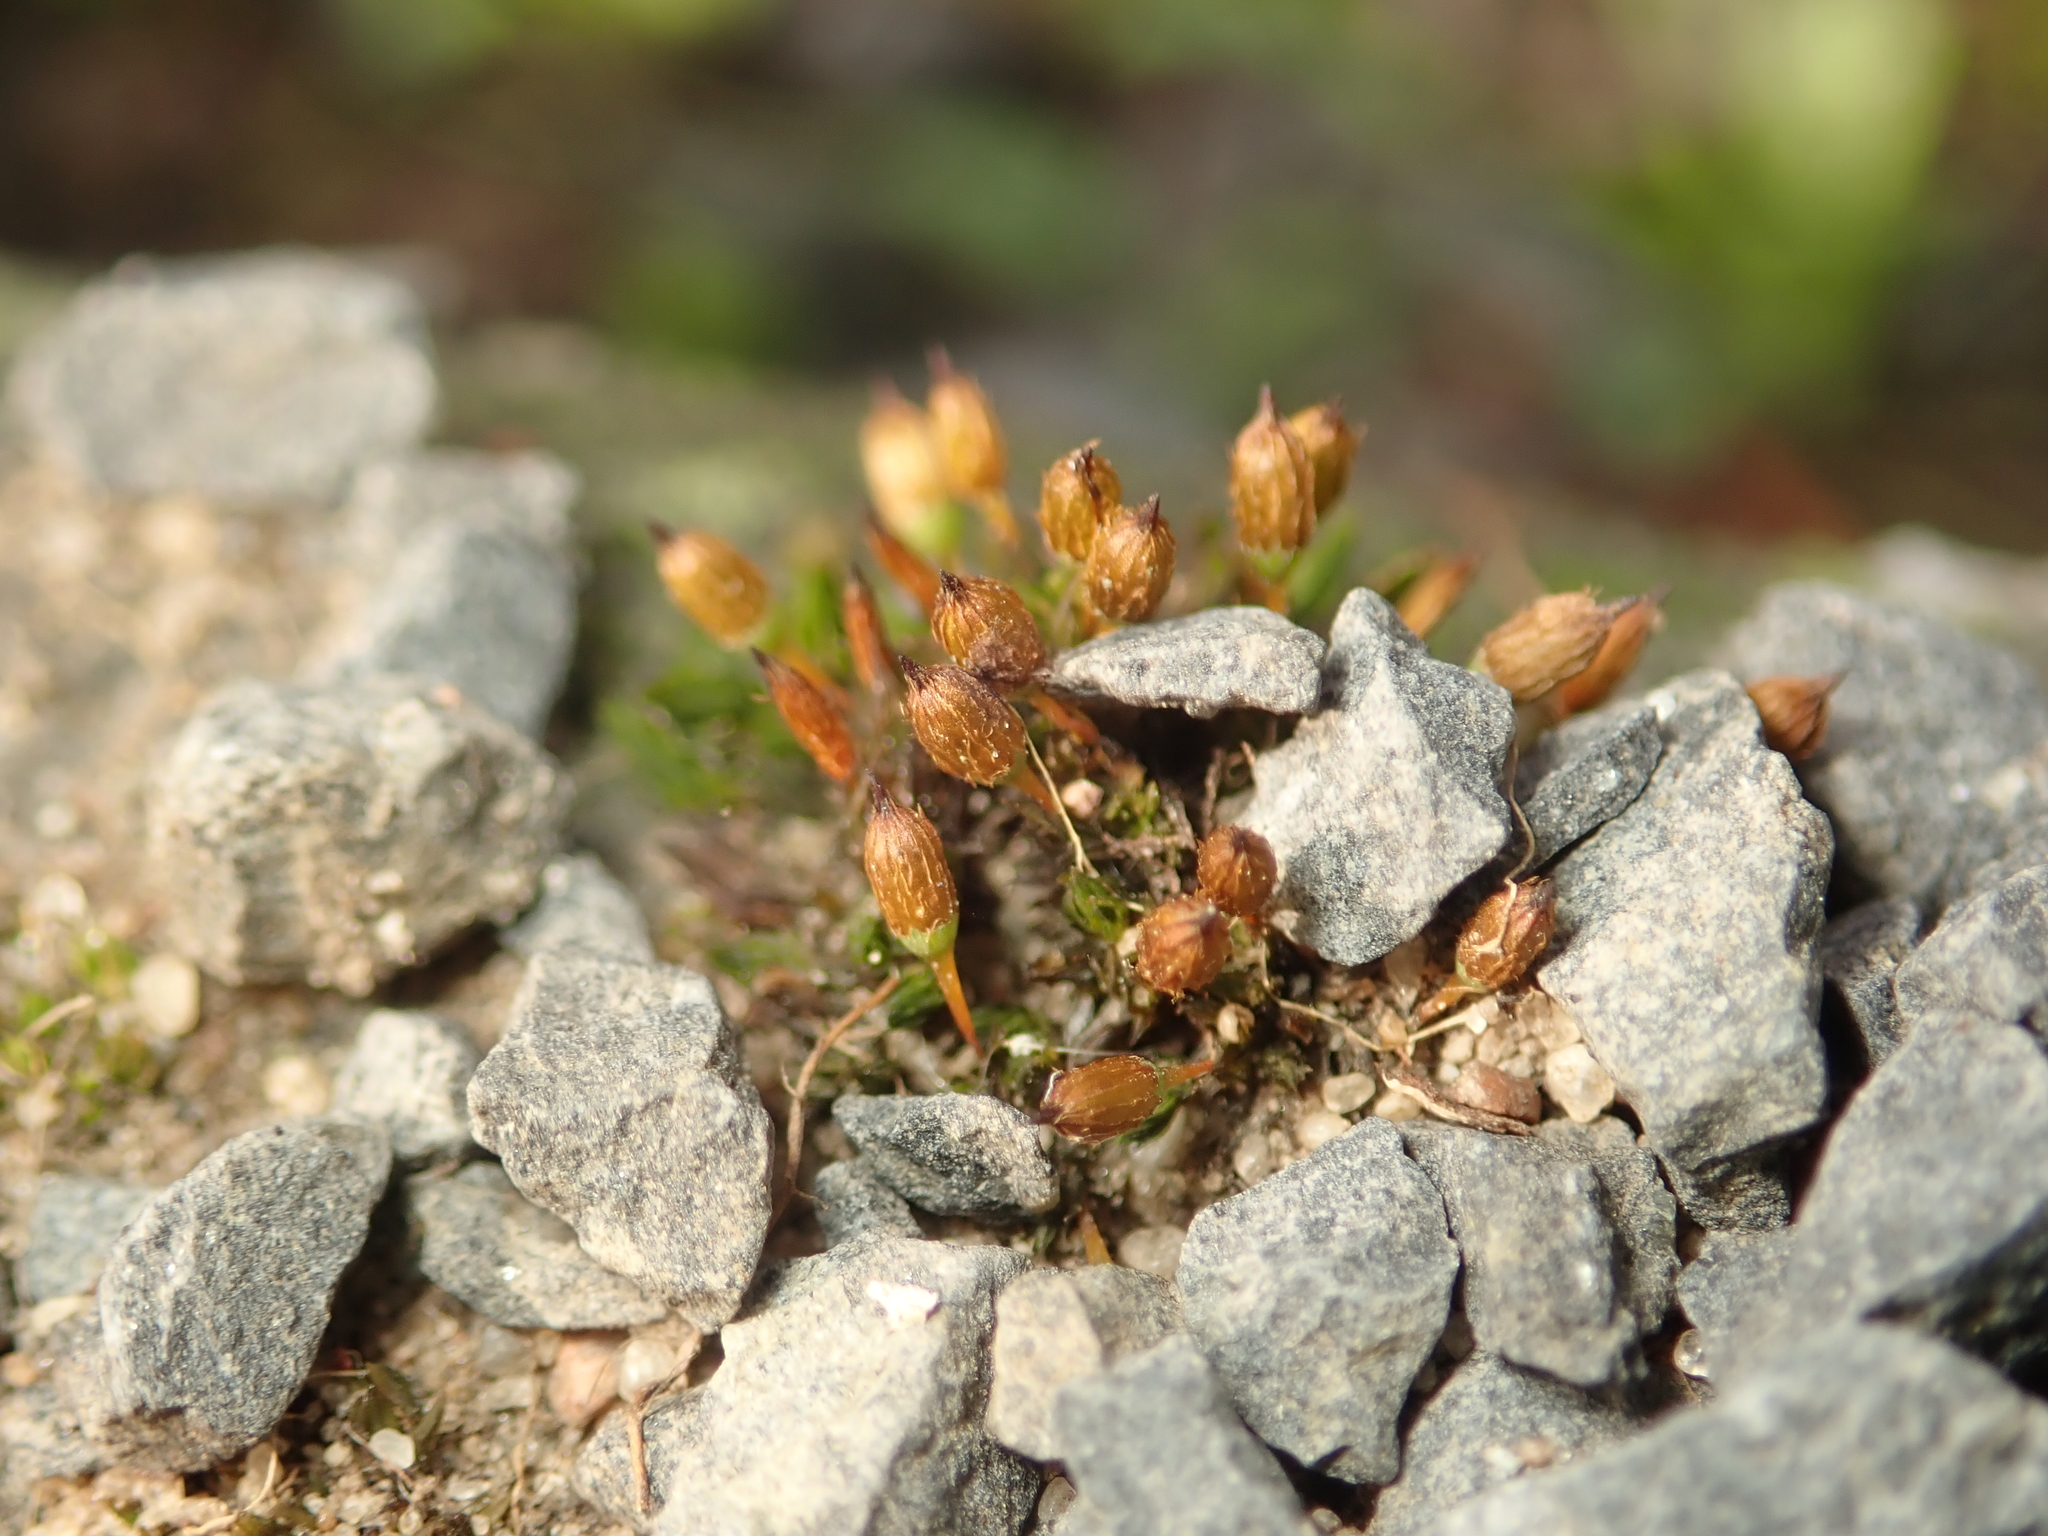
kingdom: Plantae
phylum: Bryophyta
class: Bryopsida
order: Orthotrichales
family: Orthotrichaceae
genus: Orthotrichum
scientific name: Orthotrichum anomalum
